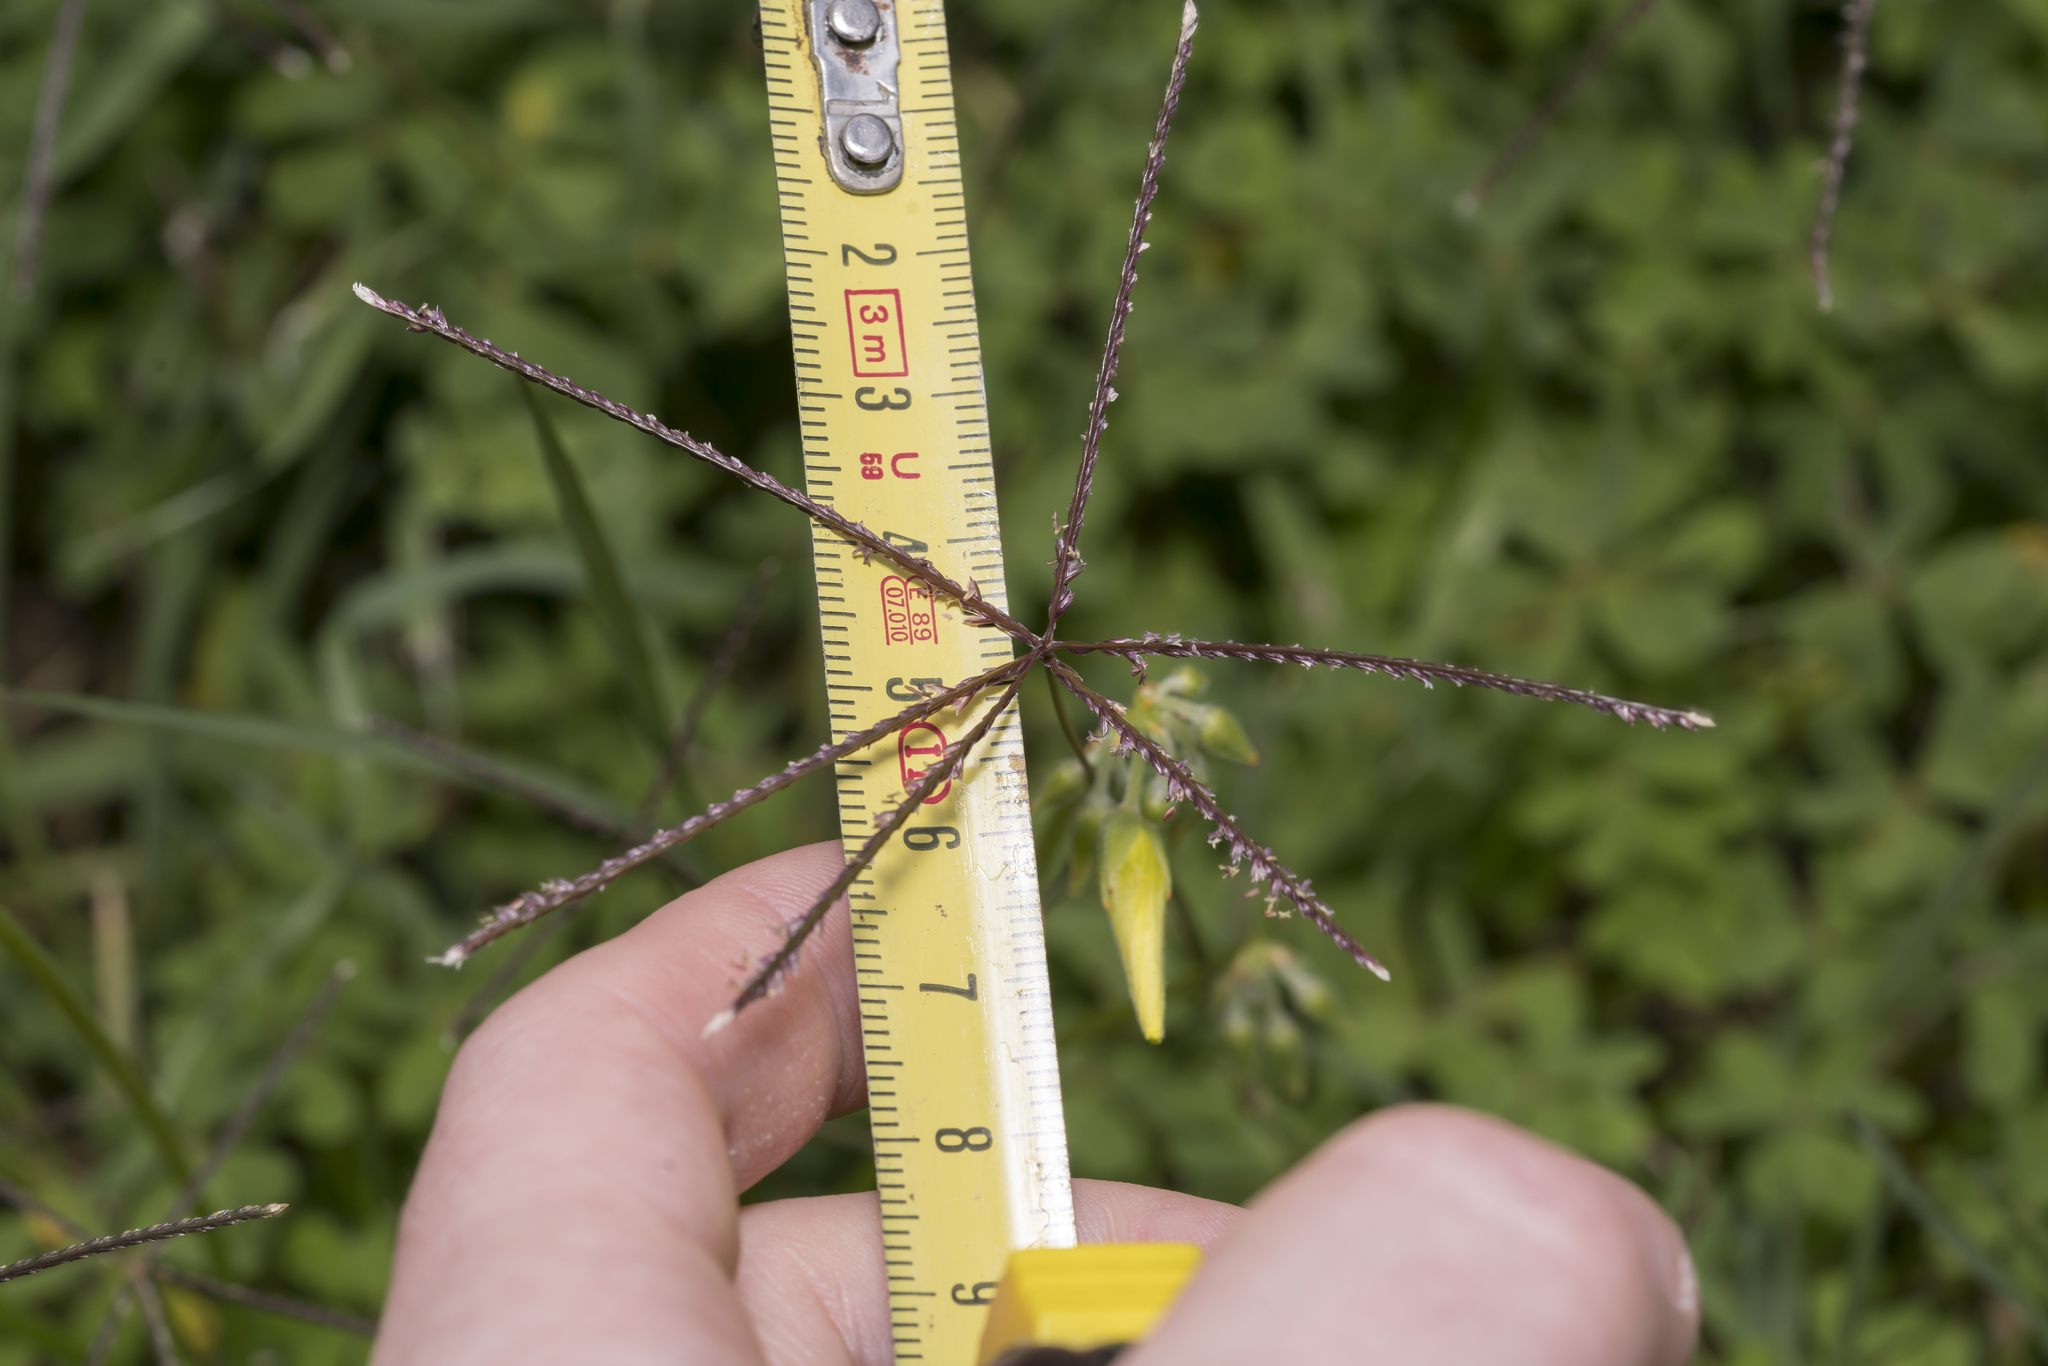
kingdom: Plantae
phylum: Tracheophyta
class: Liliopsida
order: Poales
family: Poaceae
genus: Cynodon
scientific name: Cynodon dactylon
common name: Bermuda grass
